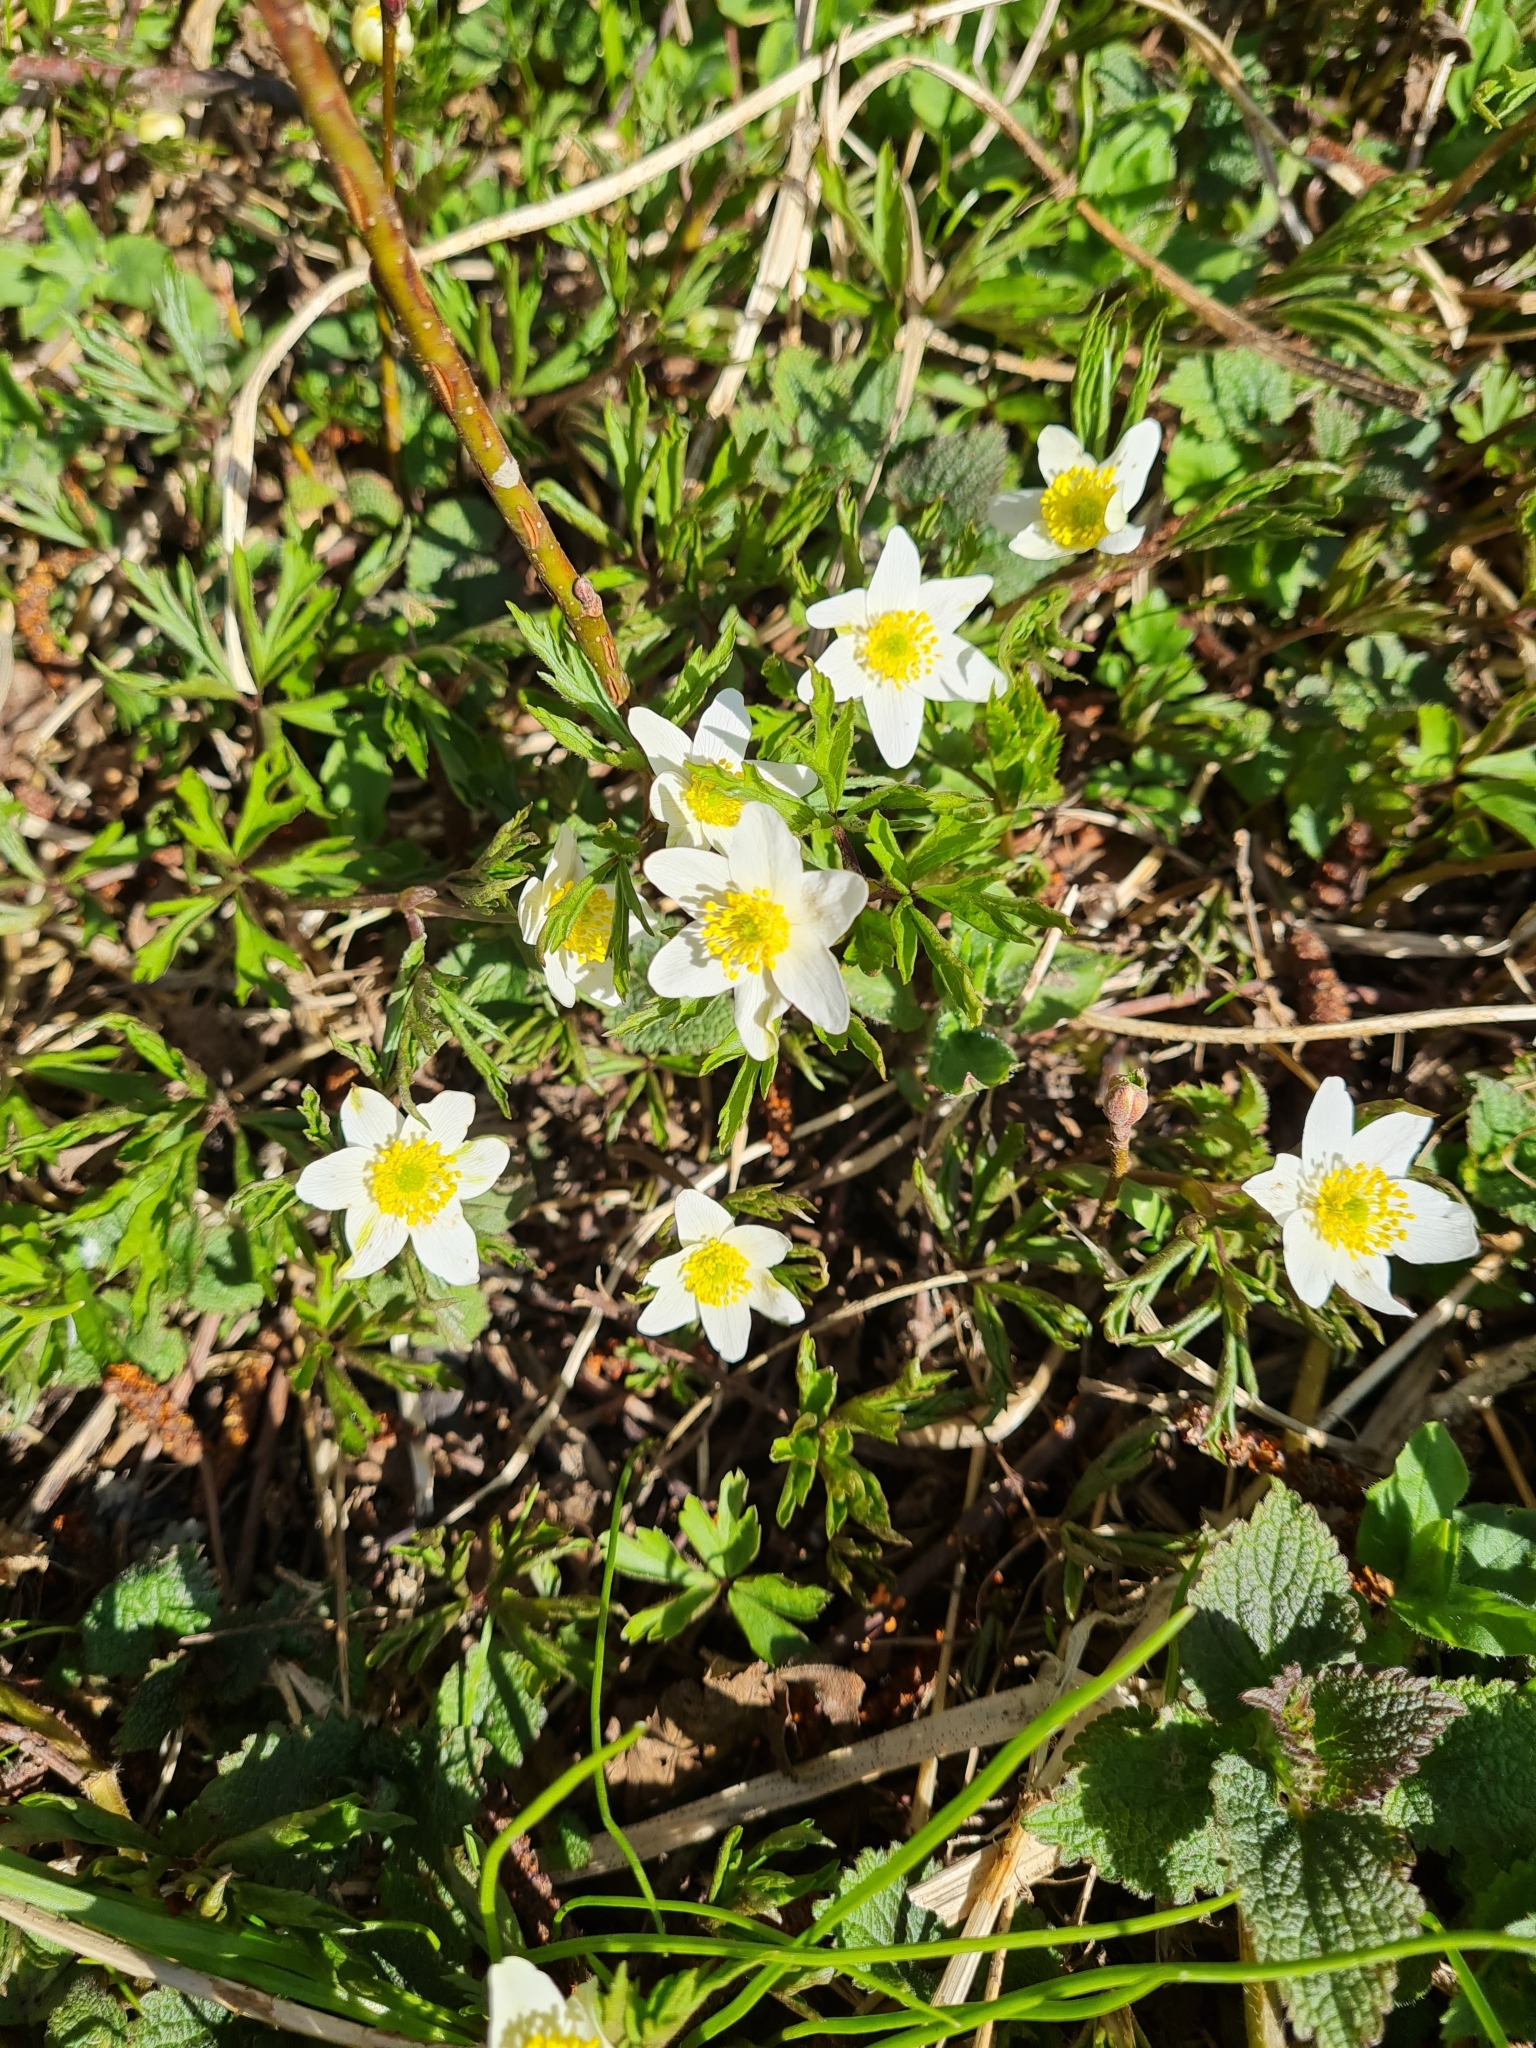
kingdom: Plantae
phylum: Tracheophyta
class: Magnoliopsida
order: Ranunculales
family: Ranunculaceae
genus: Anemone
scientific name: Anemone nemorosa
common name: Wood anemone
